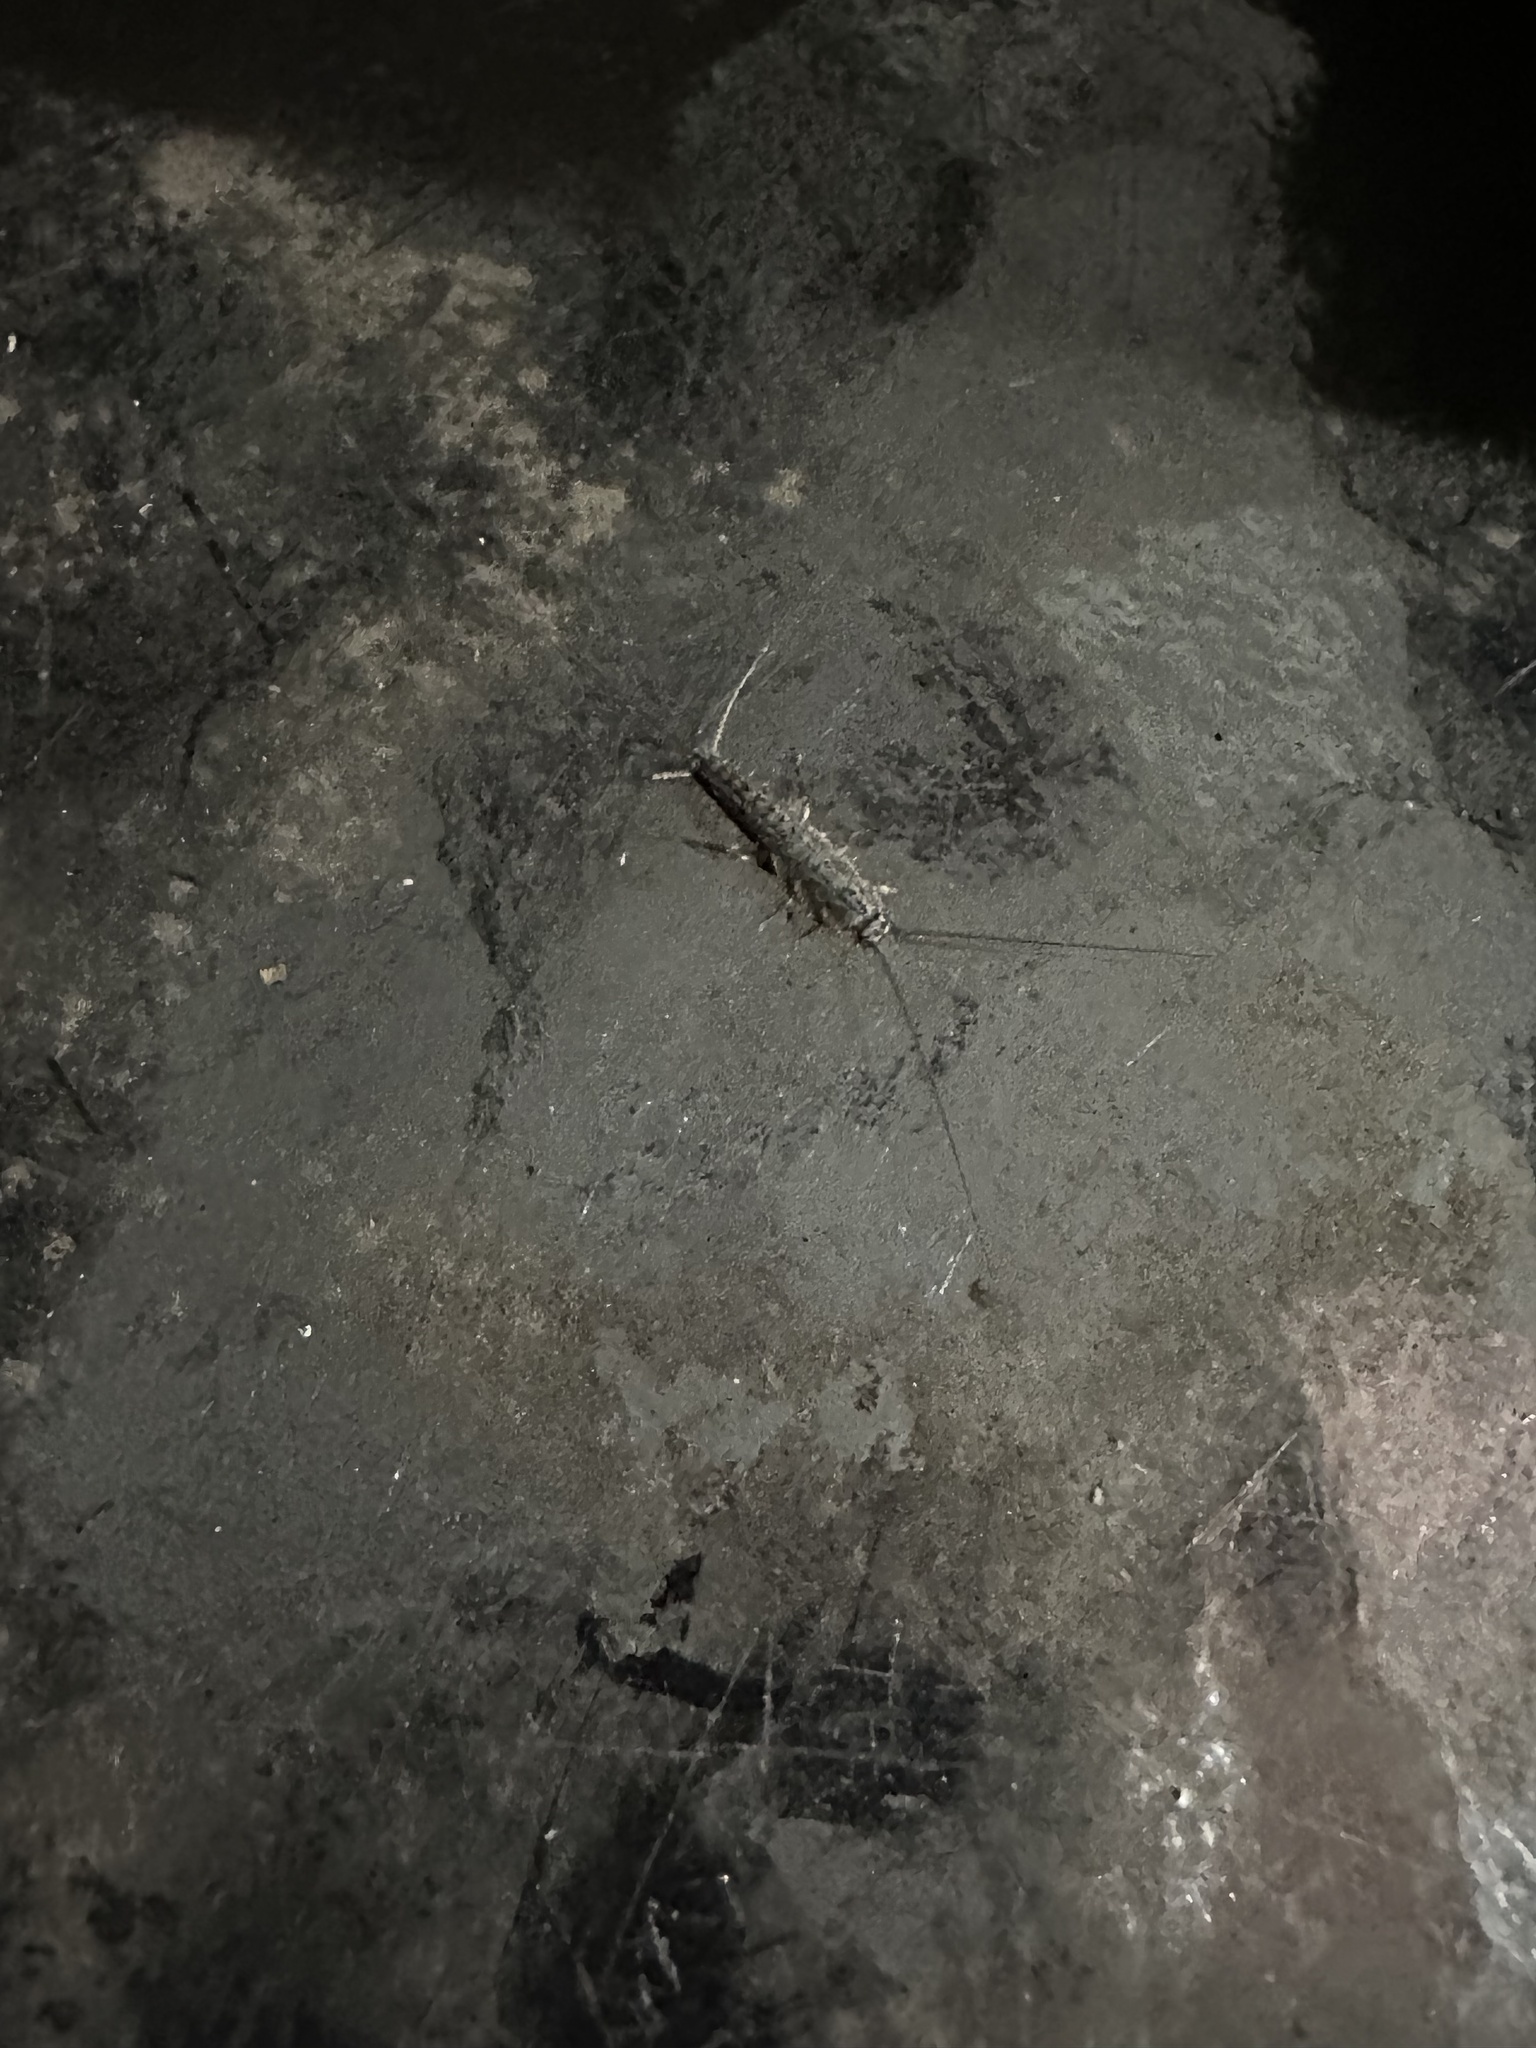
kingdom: Animalia
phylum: Arthropoda
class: Insecta
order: Zygentoma
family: Lepismatidae
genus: Ctenolepisma
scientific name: Ctenolepisma lineata
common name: Four-lined silverfish
